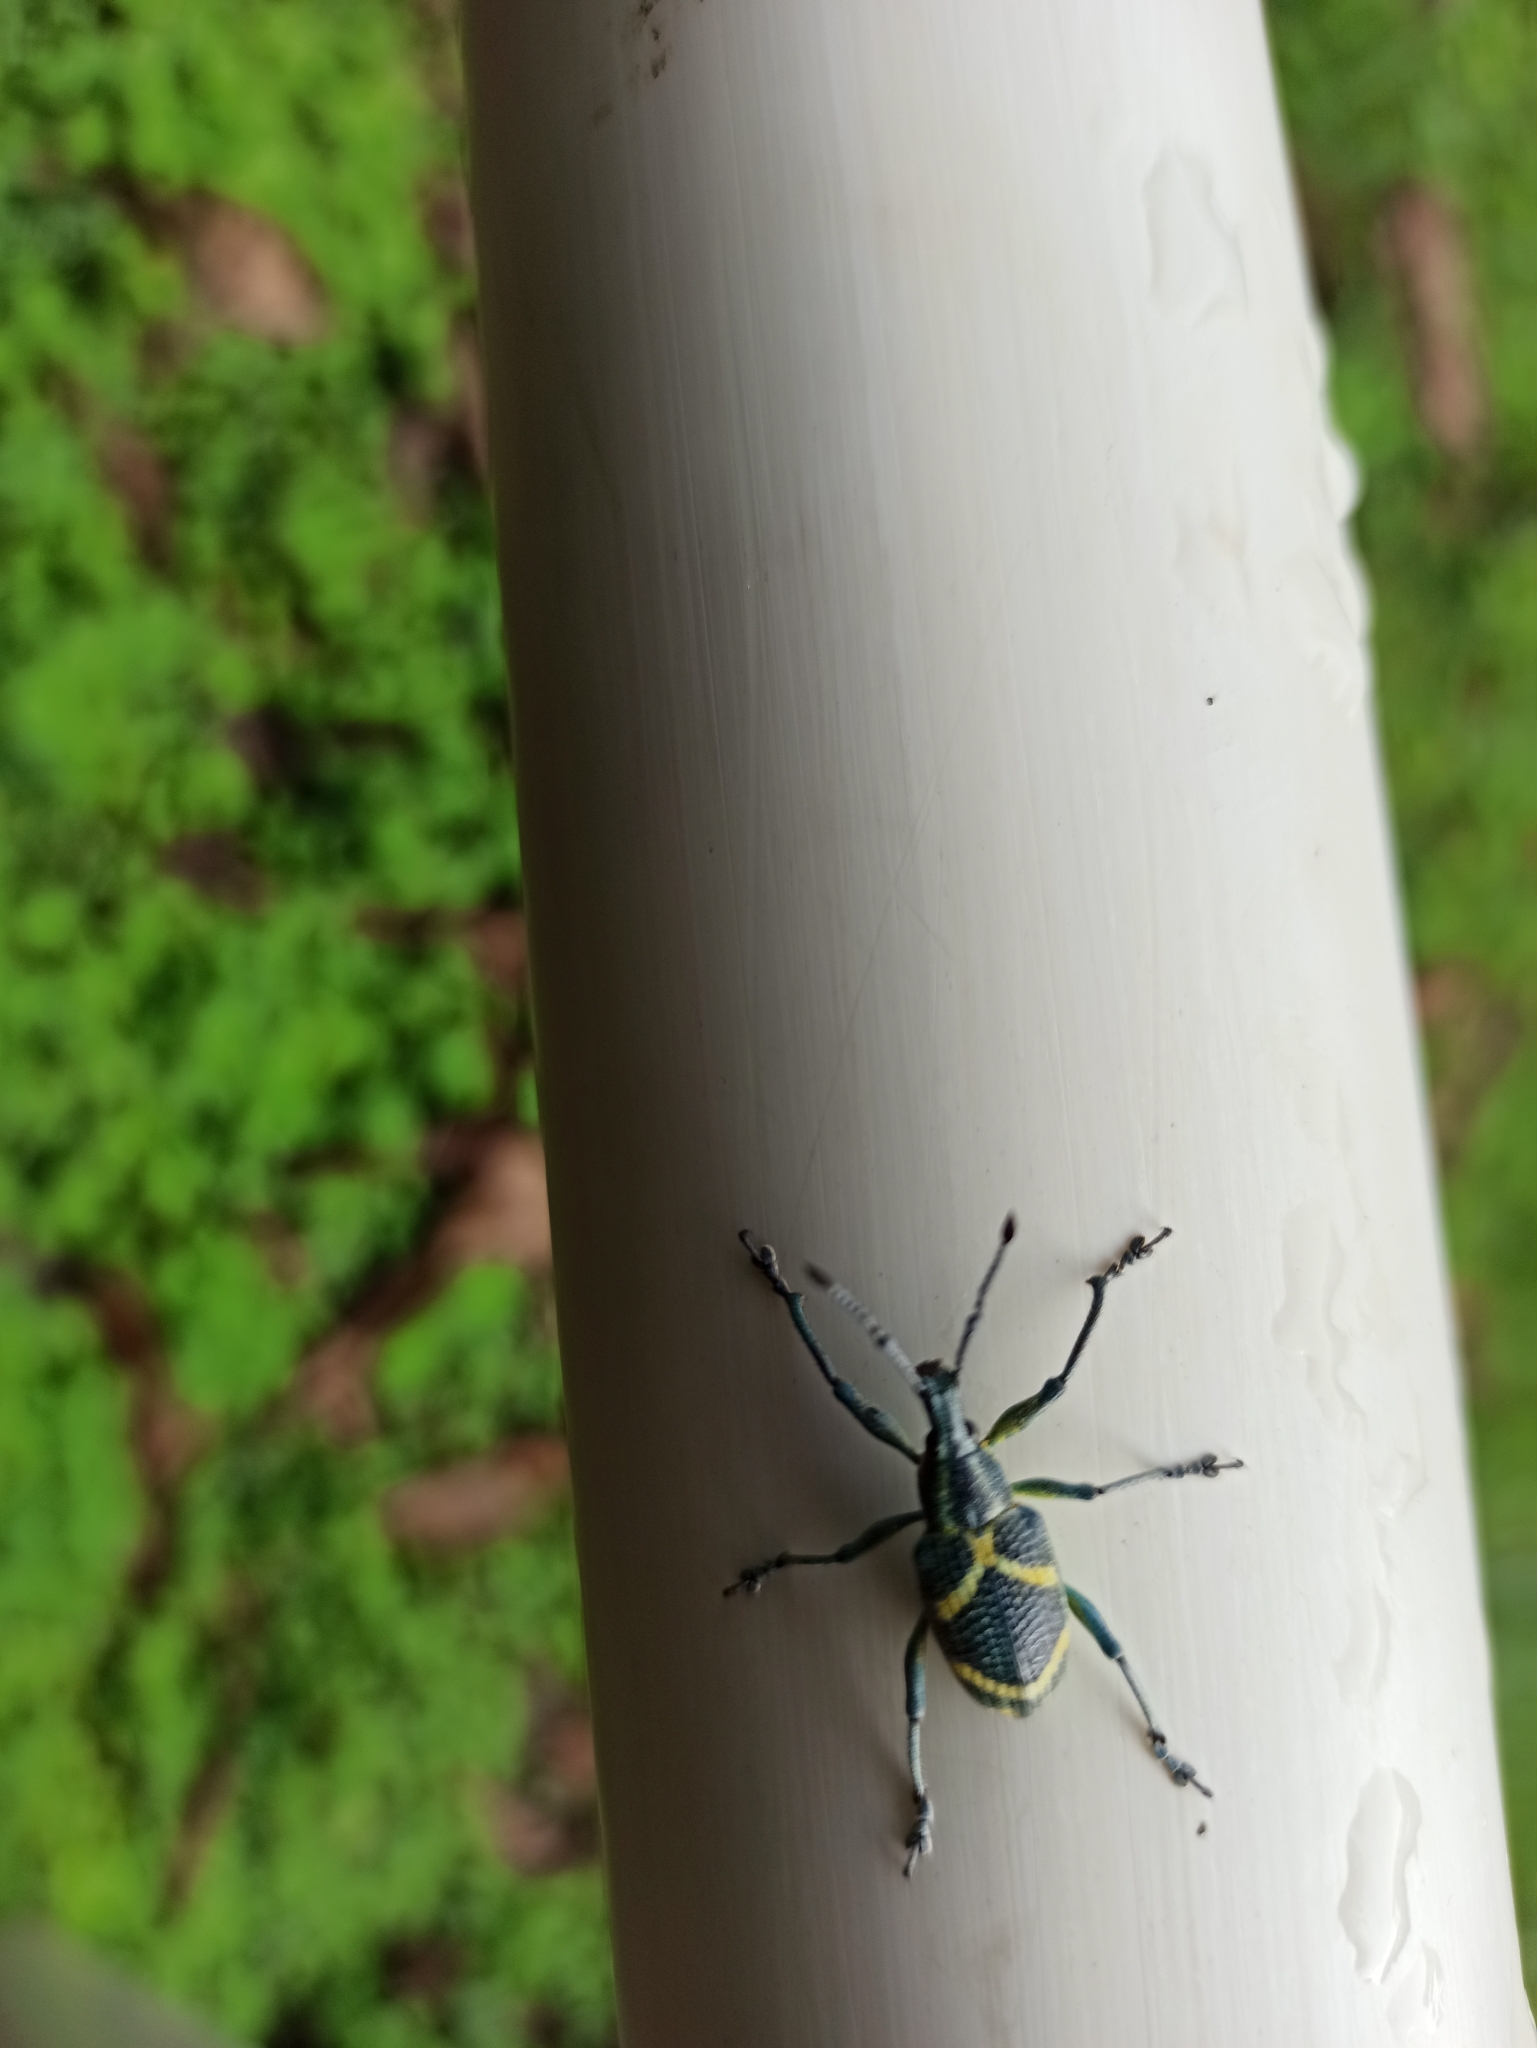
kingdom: Animalia
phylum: Arthropoda
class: Insecta
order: Coleoptera
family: Curculionidae
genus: Exophthalmus
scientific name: Exophthalmus parentheticus
